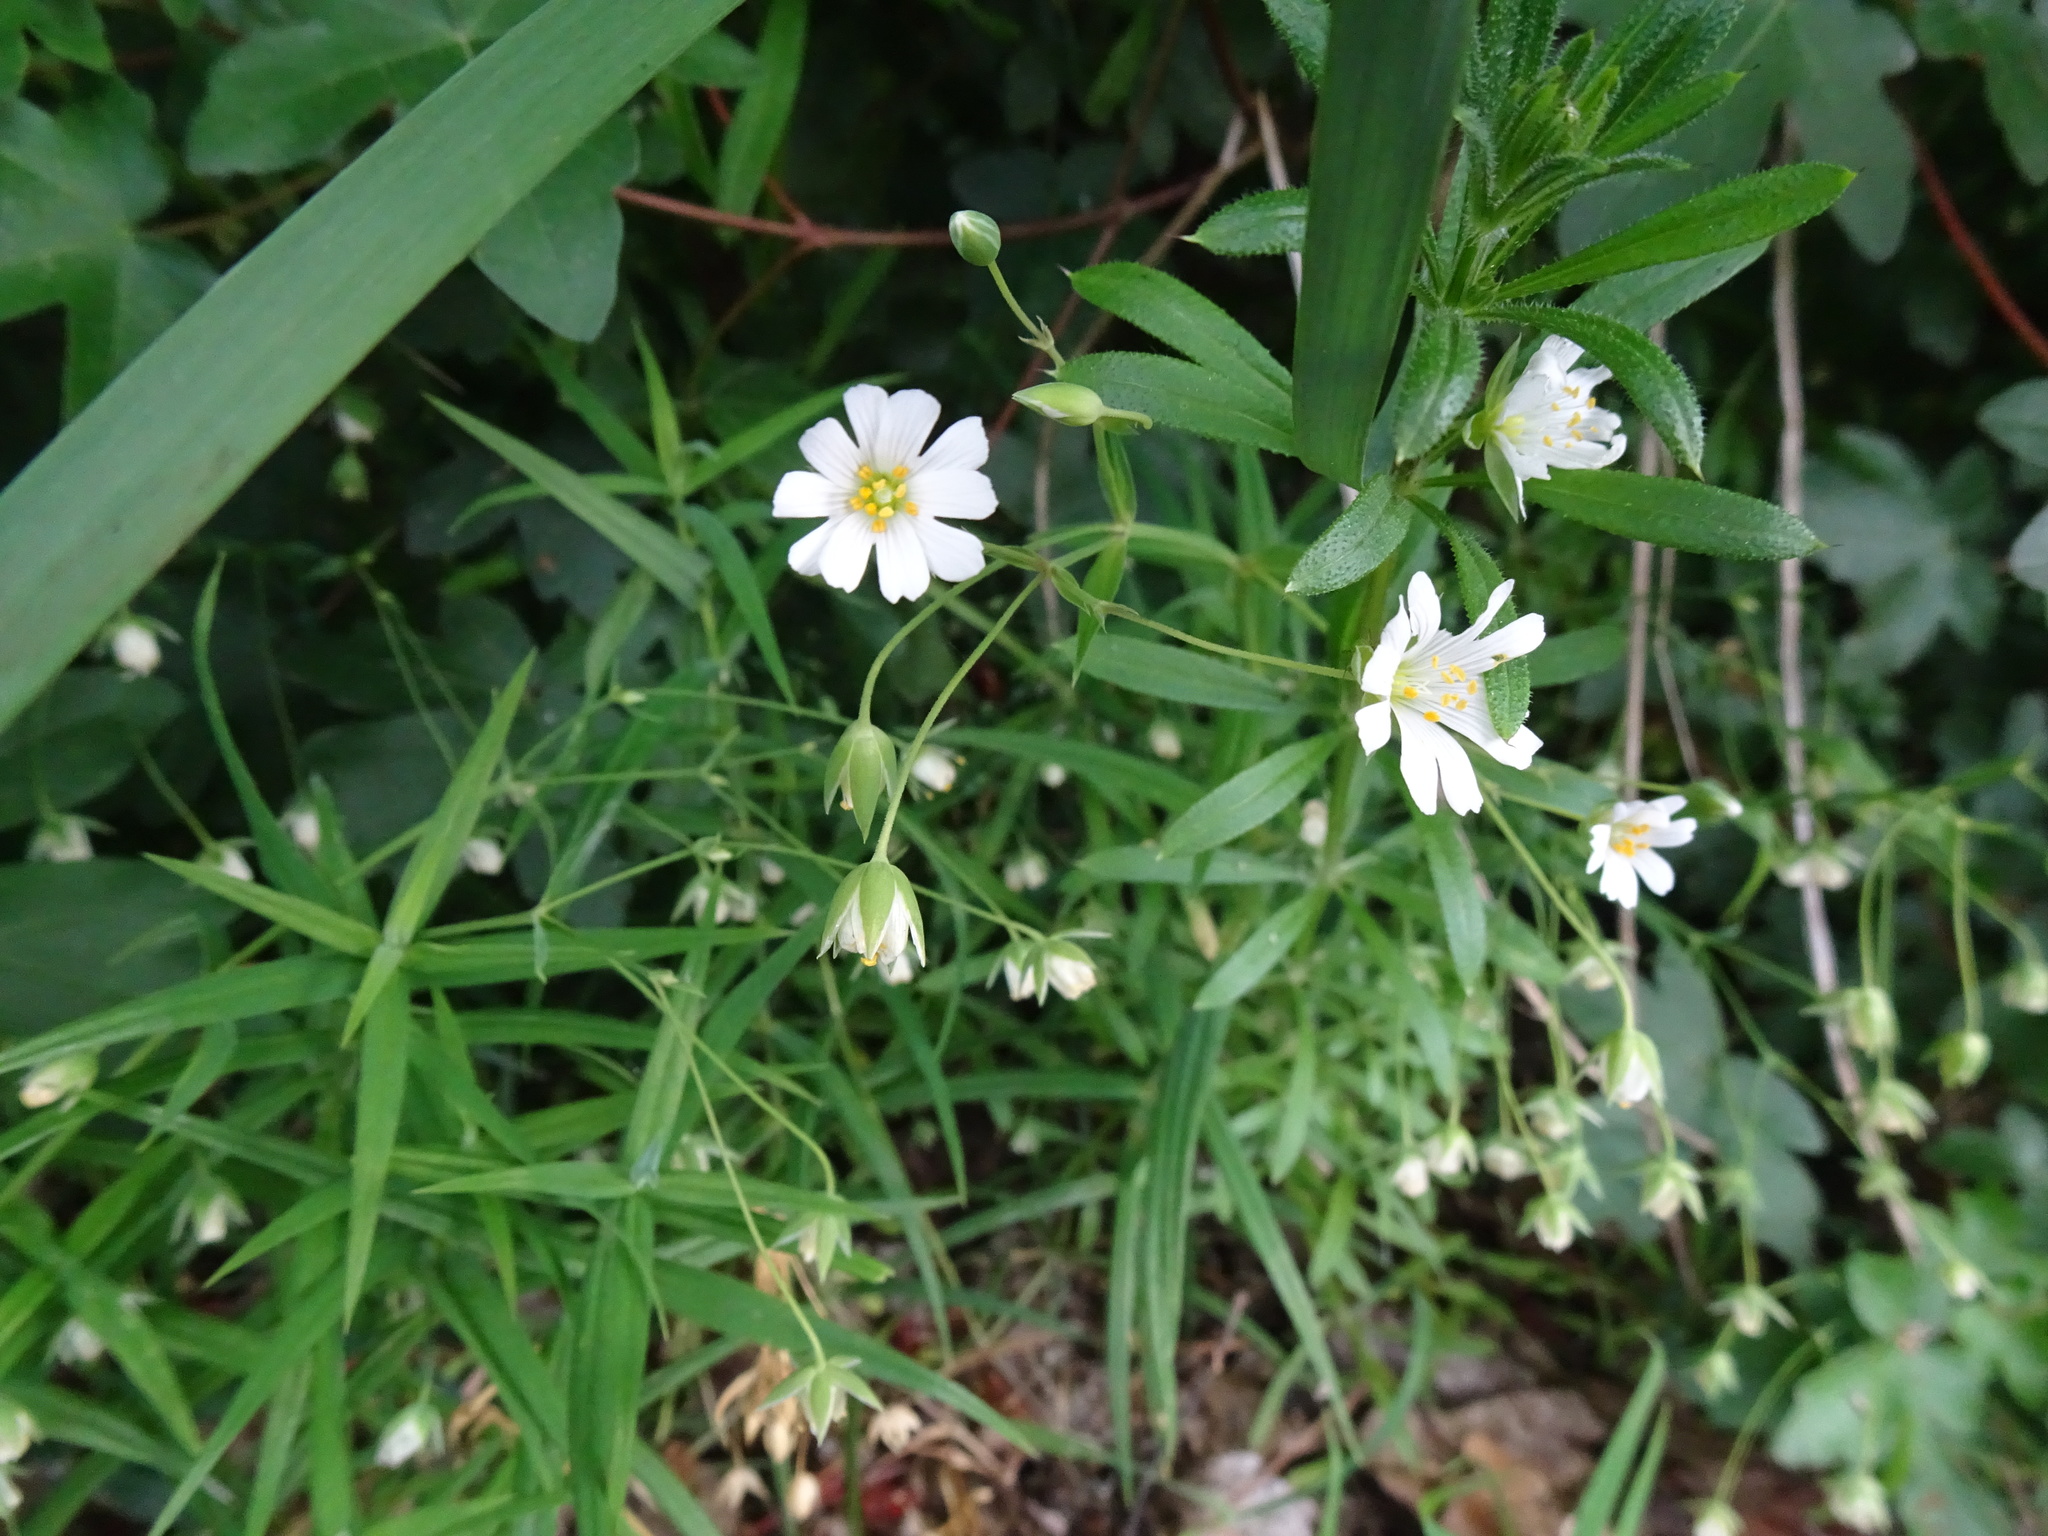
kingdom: Plantae
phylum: Tracheophyta
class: Magnoliopsida
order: Caryophyllales
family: Caryophyllaceae
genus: Rabelera
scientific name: Rabelera holostea
